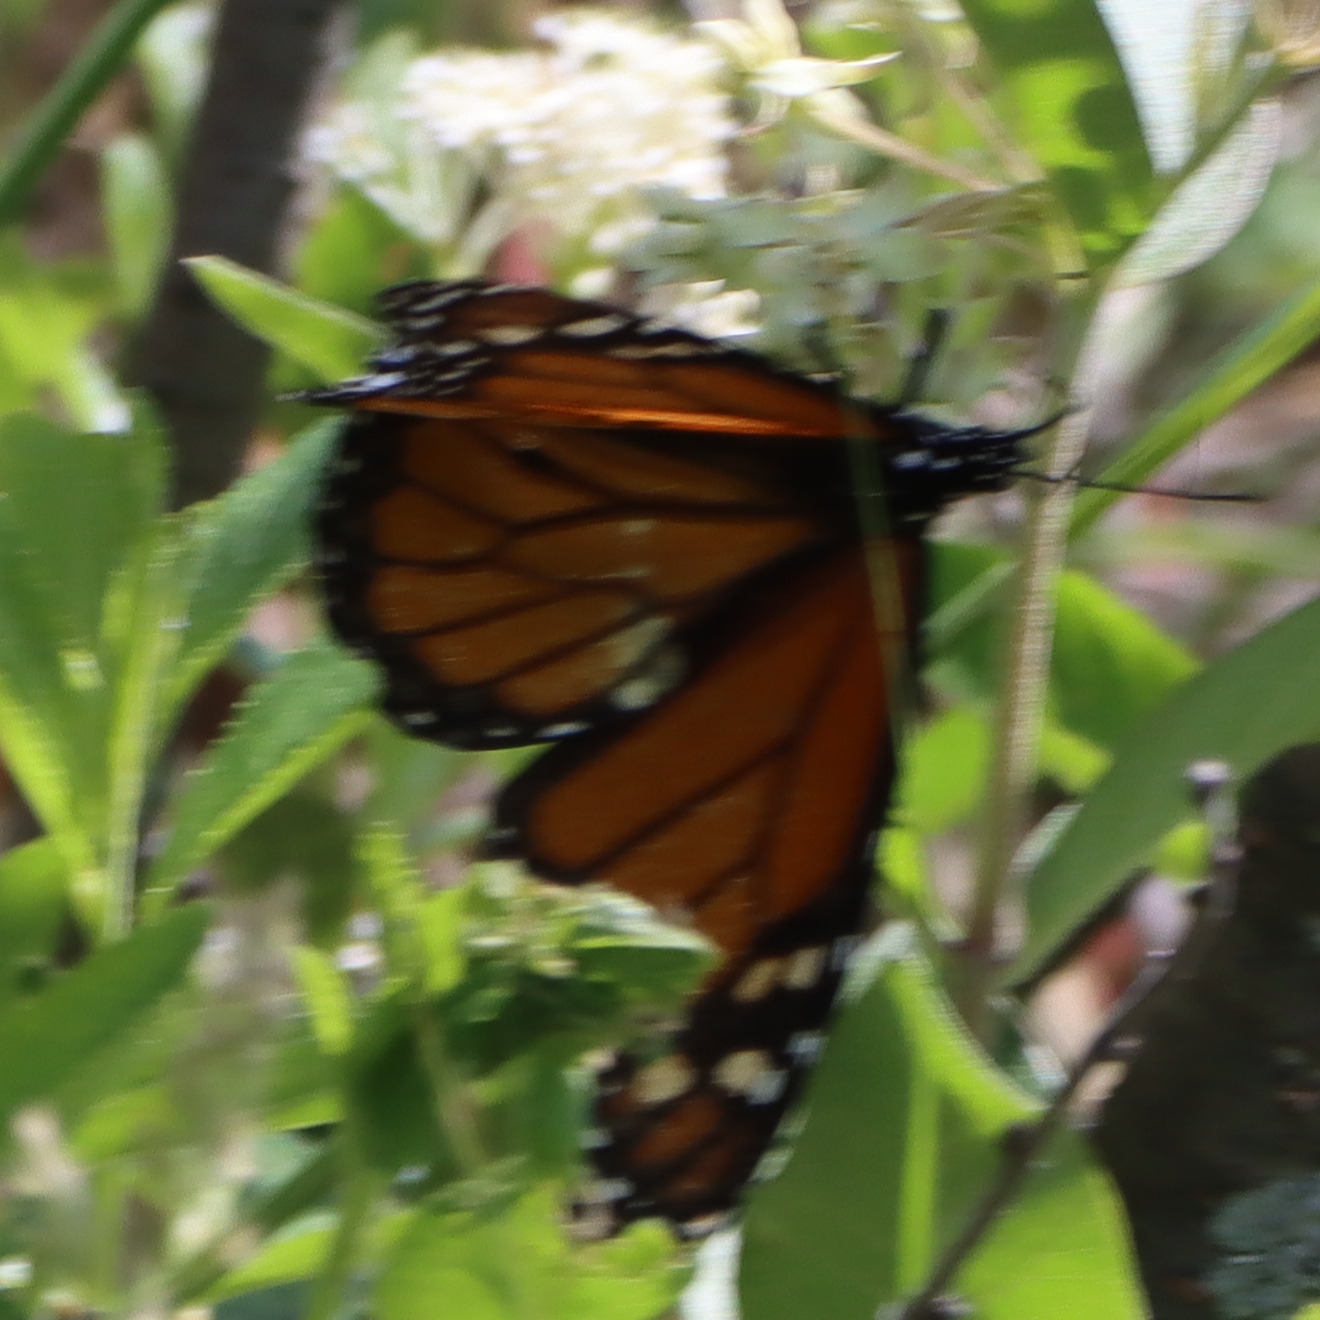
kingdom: Animalia
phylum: Arthropoda
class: Insecta
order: Lepidoptera
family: Nymphalidae
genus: Danaus
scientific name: Danaus plexippus
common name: Monarch
